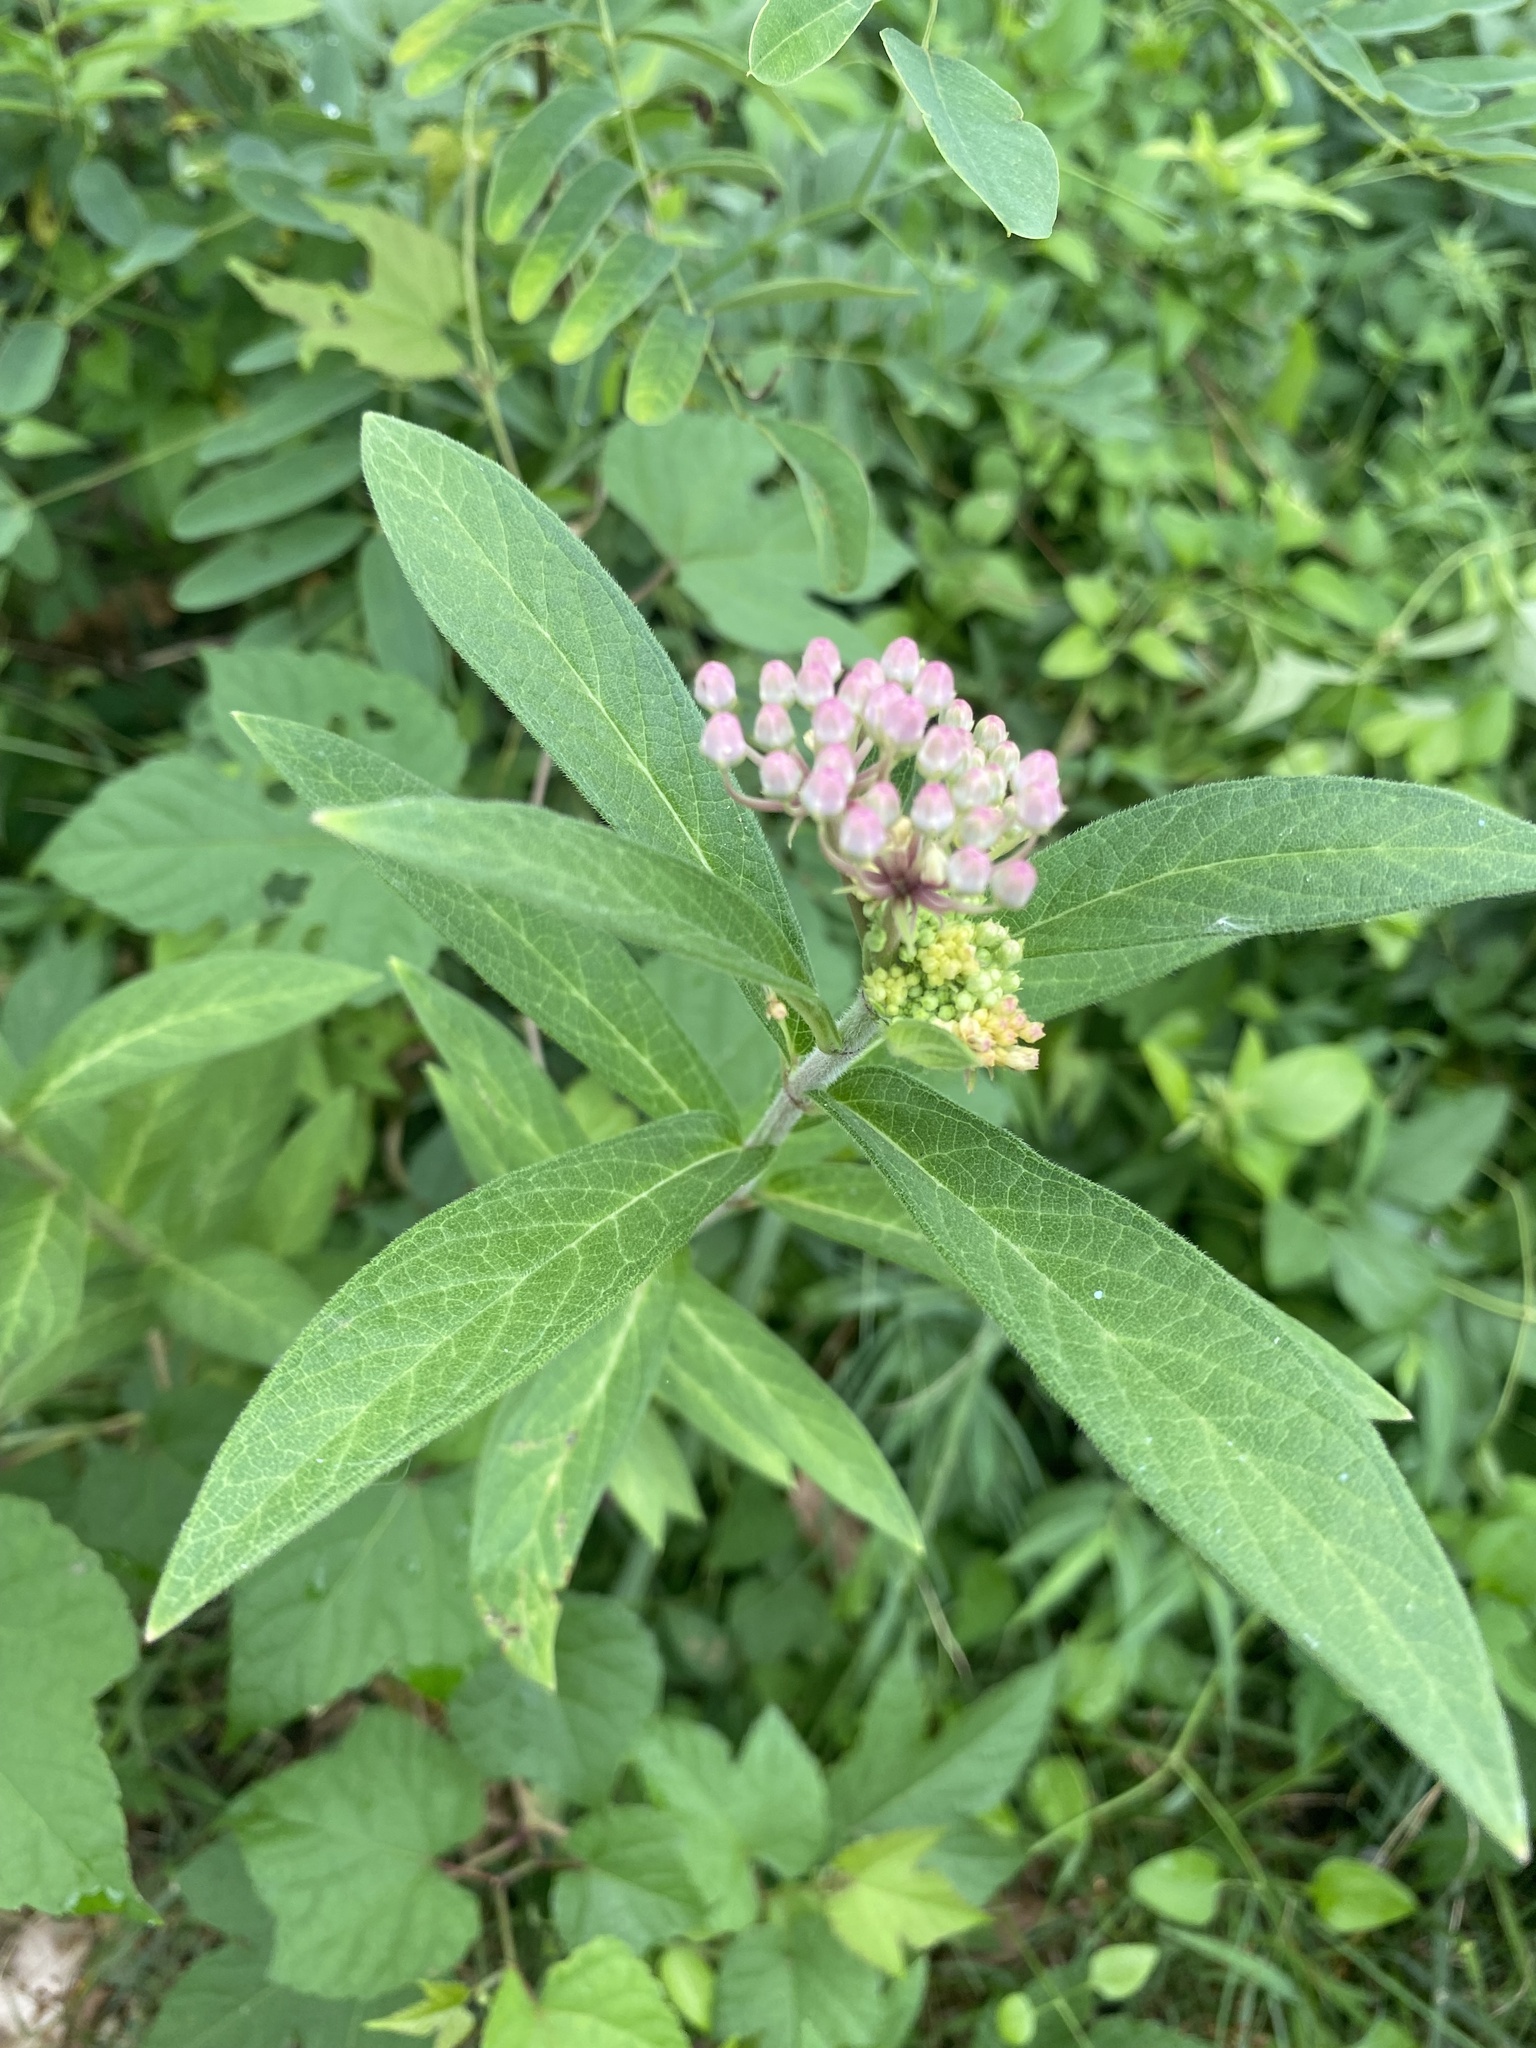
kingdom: Plantae
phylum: Tracheophyta
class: Magnoliopsida
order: Gentianales
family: Apocynaceae
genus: Asclepias
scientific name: Asclepias incarnata
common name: Swamp milkweed
